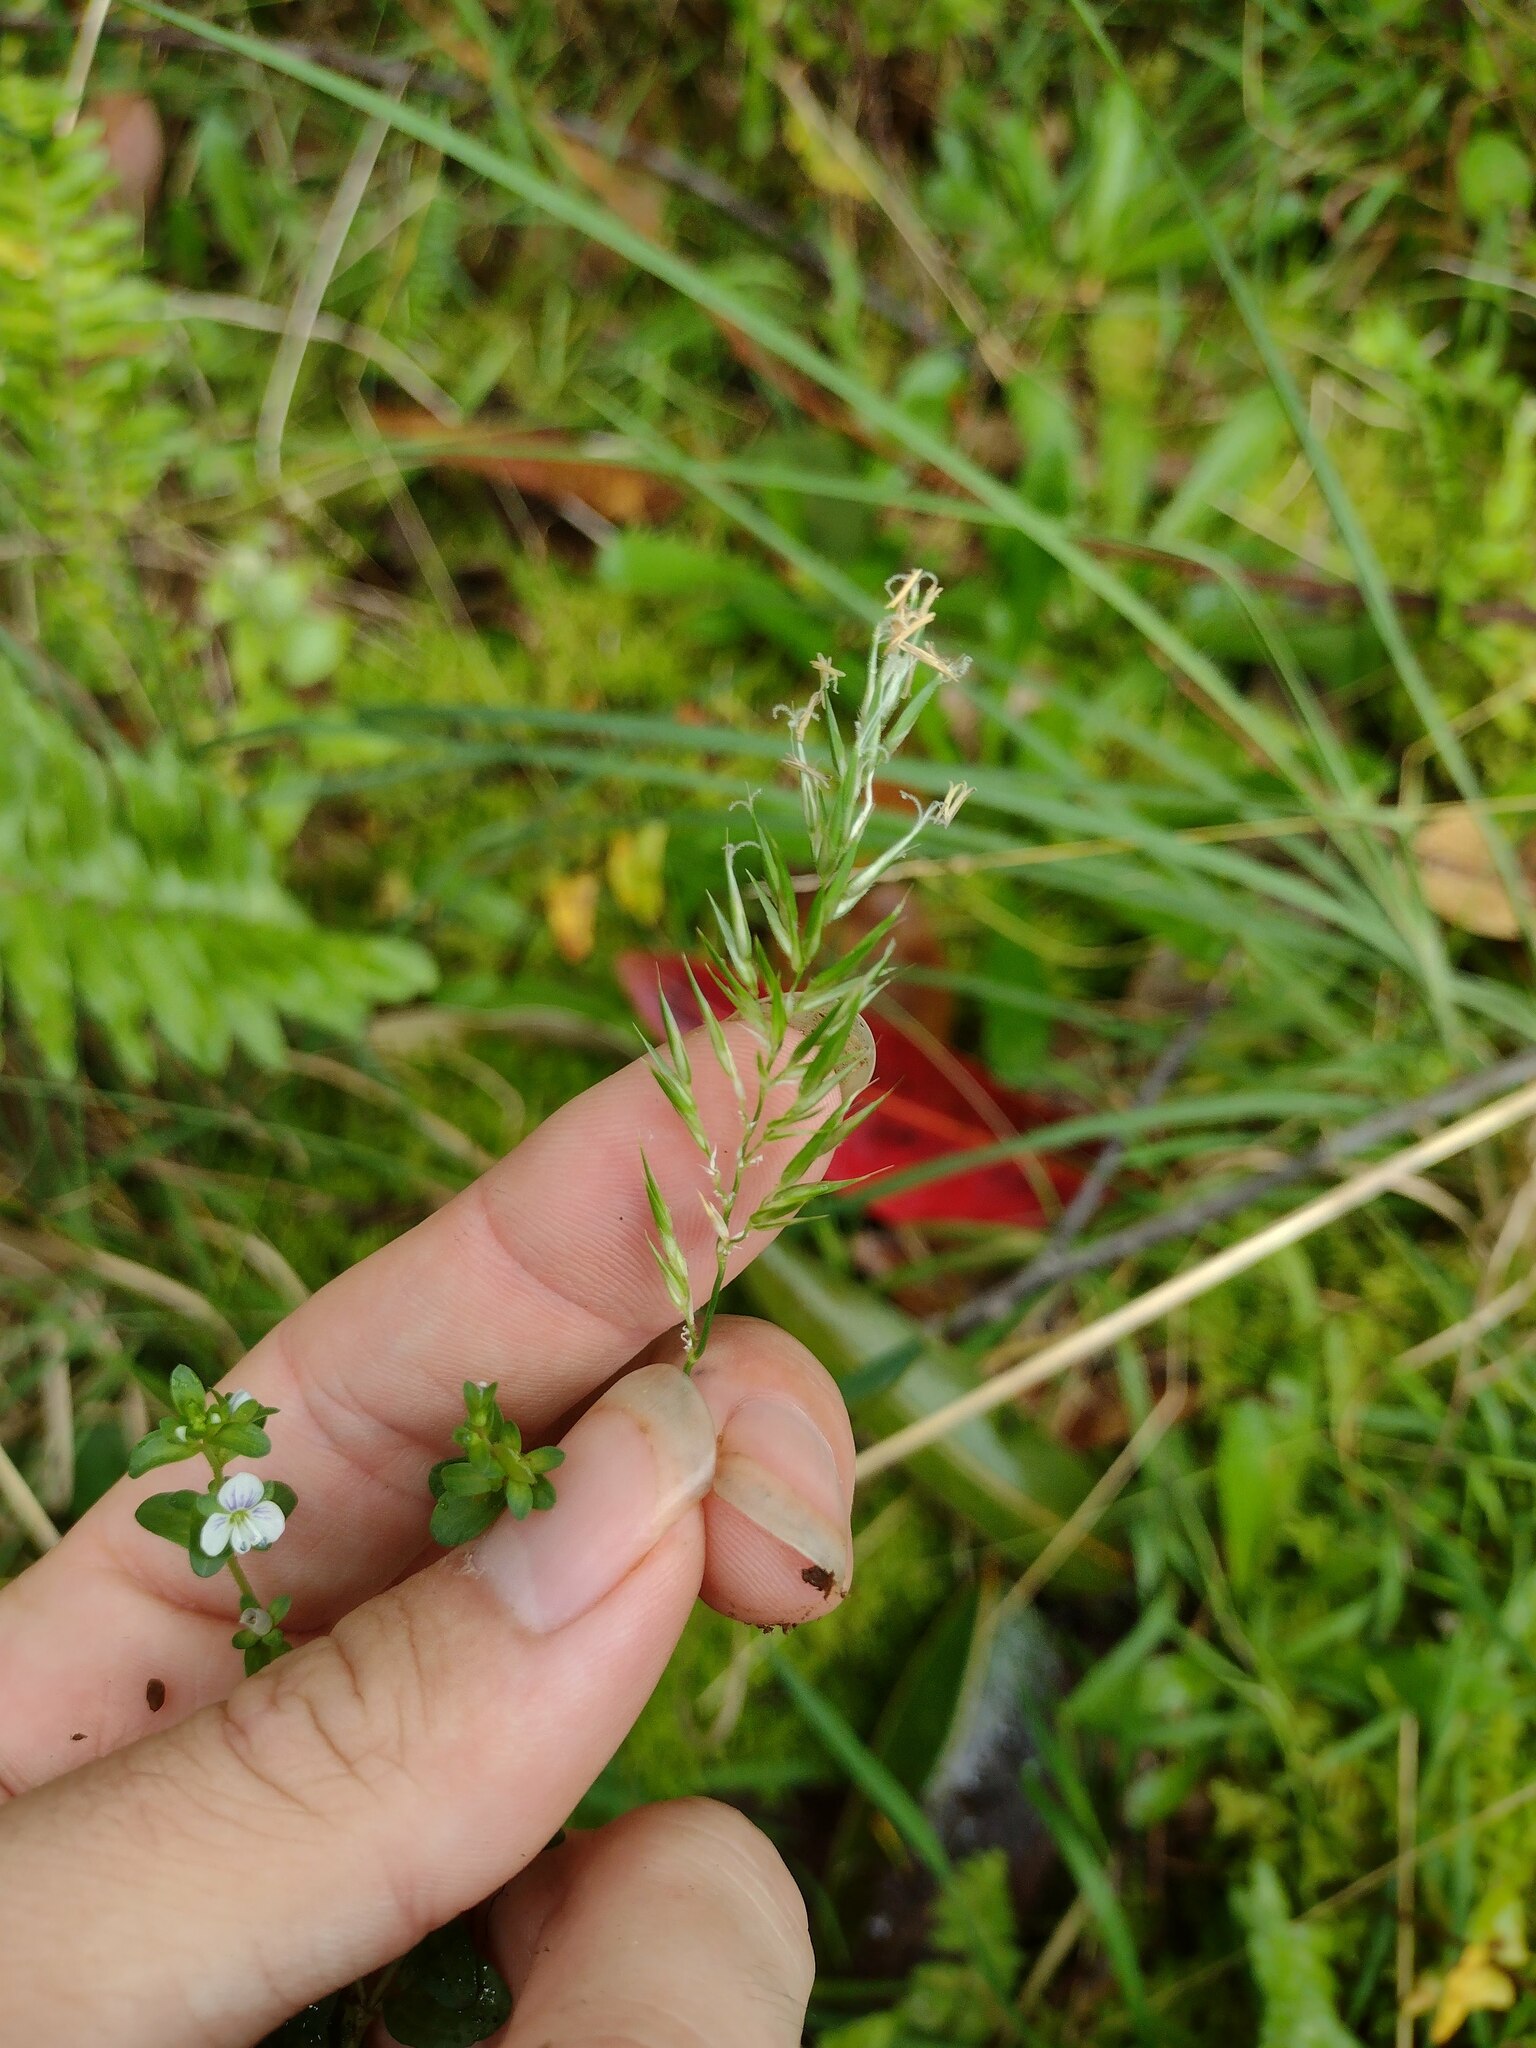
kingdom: Plantae
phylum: Tracheophyta
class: Liliopsida
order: Poales
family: Poaceae
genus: Anthoxanthum
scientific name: Anthoxanthum odoratum
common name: Sweet vernalgrass
